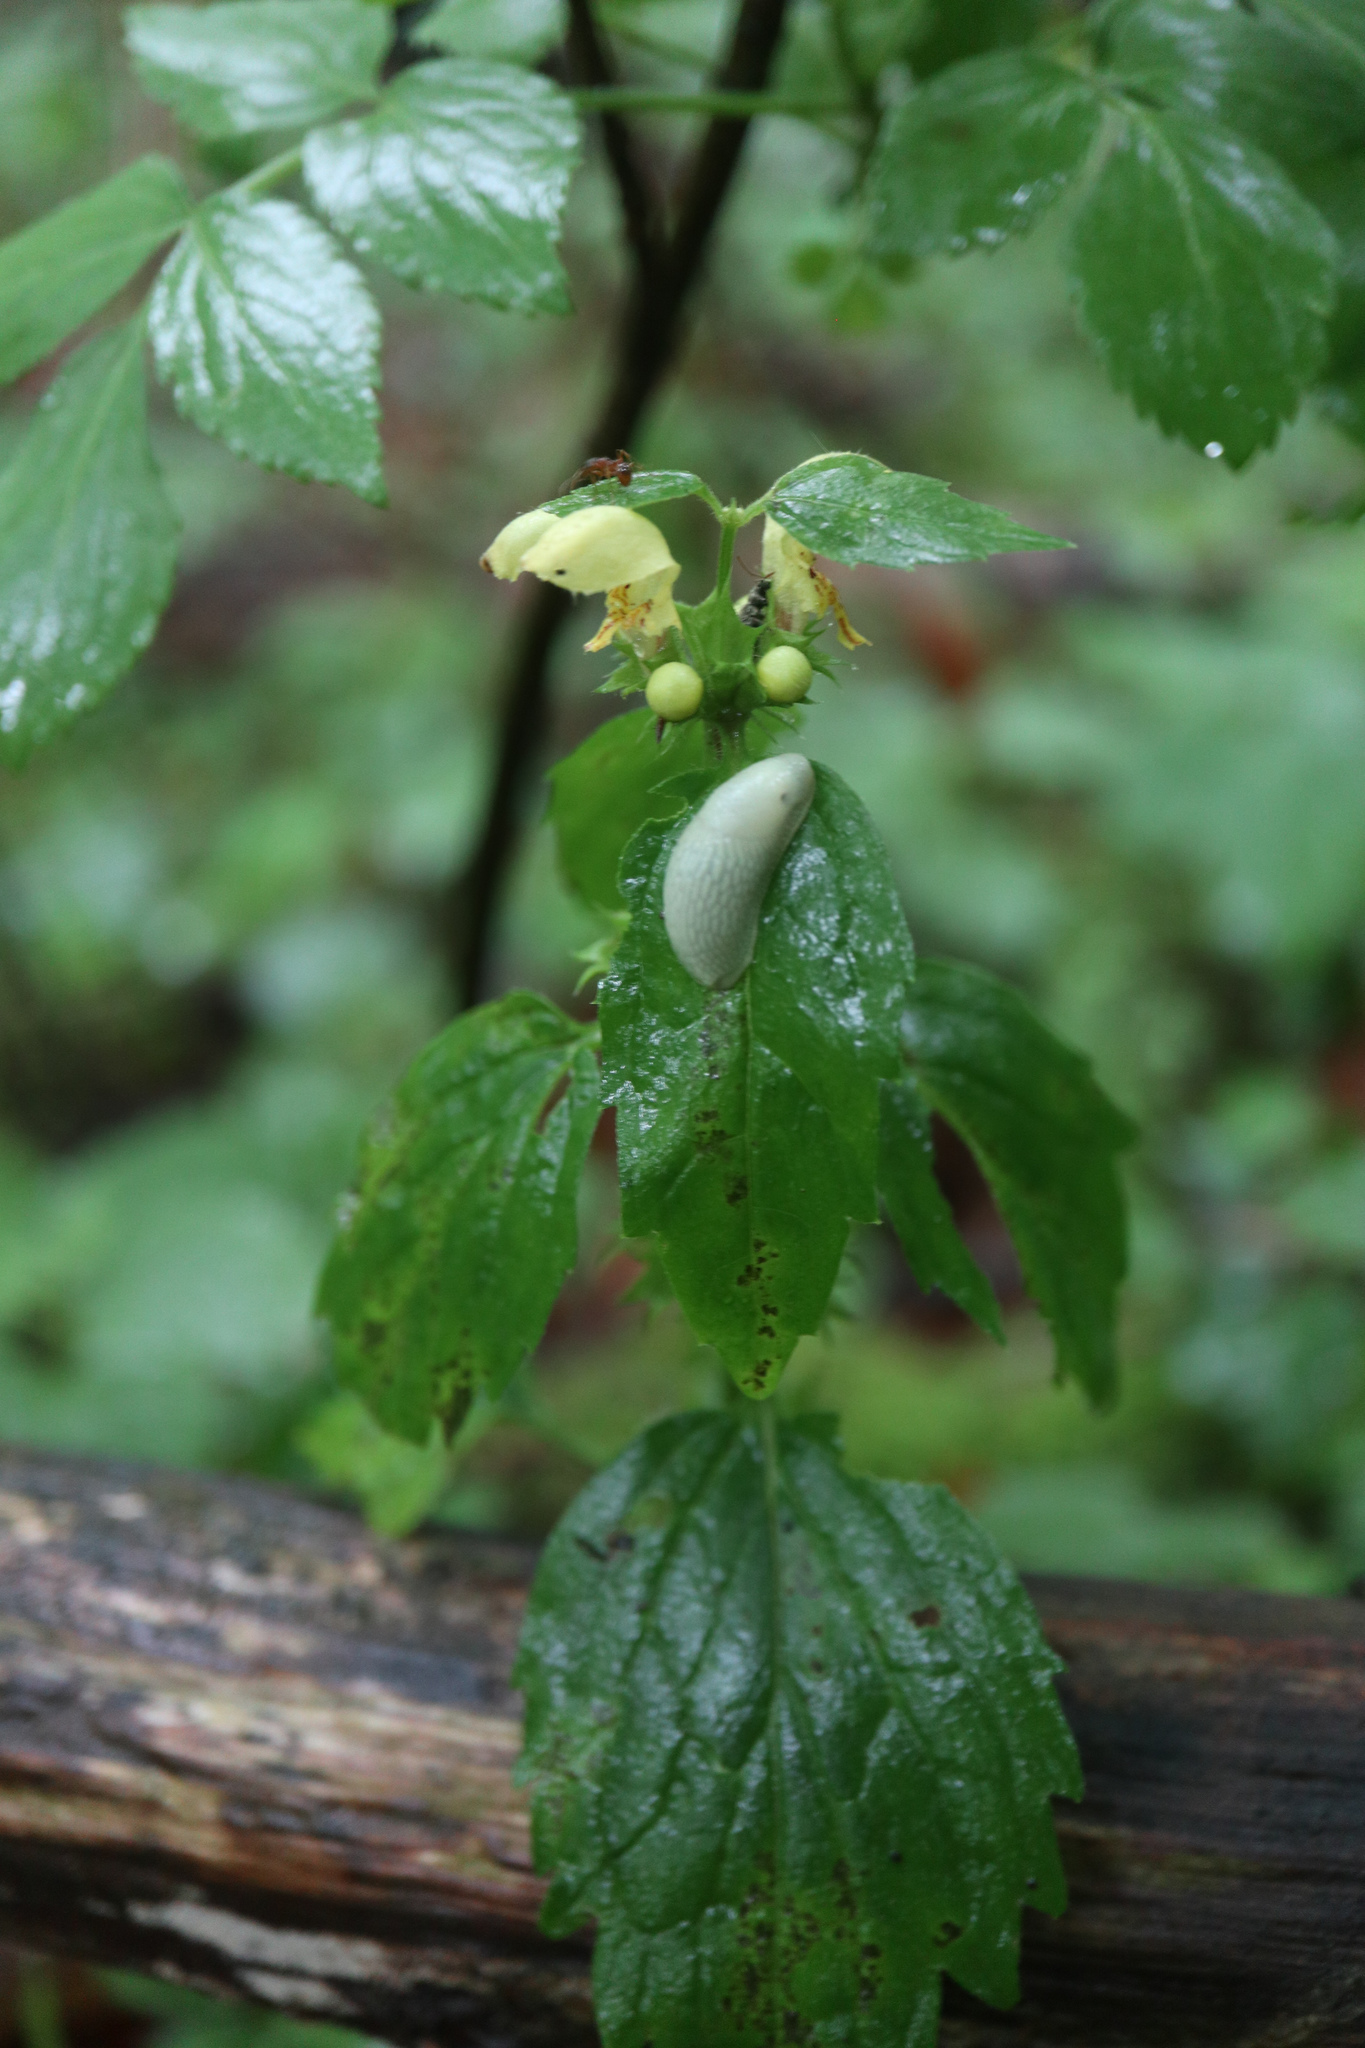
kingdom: Plantae
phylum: Tracheophyta
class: Magnoliopsida
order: Lamiales
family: Lamiaceae
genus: Lamium
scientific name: Lamium galeobdolon
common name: Yellow archangel
